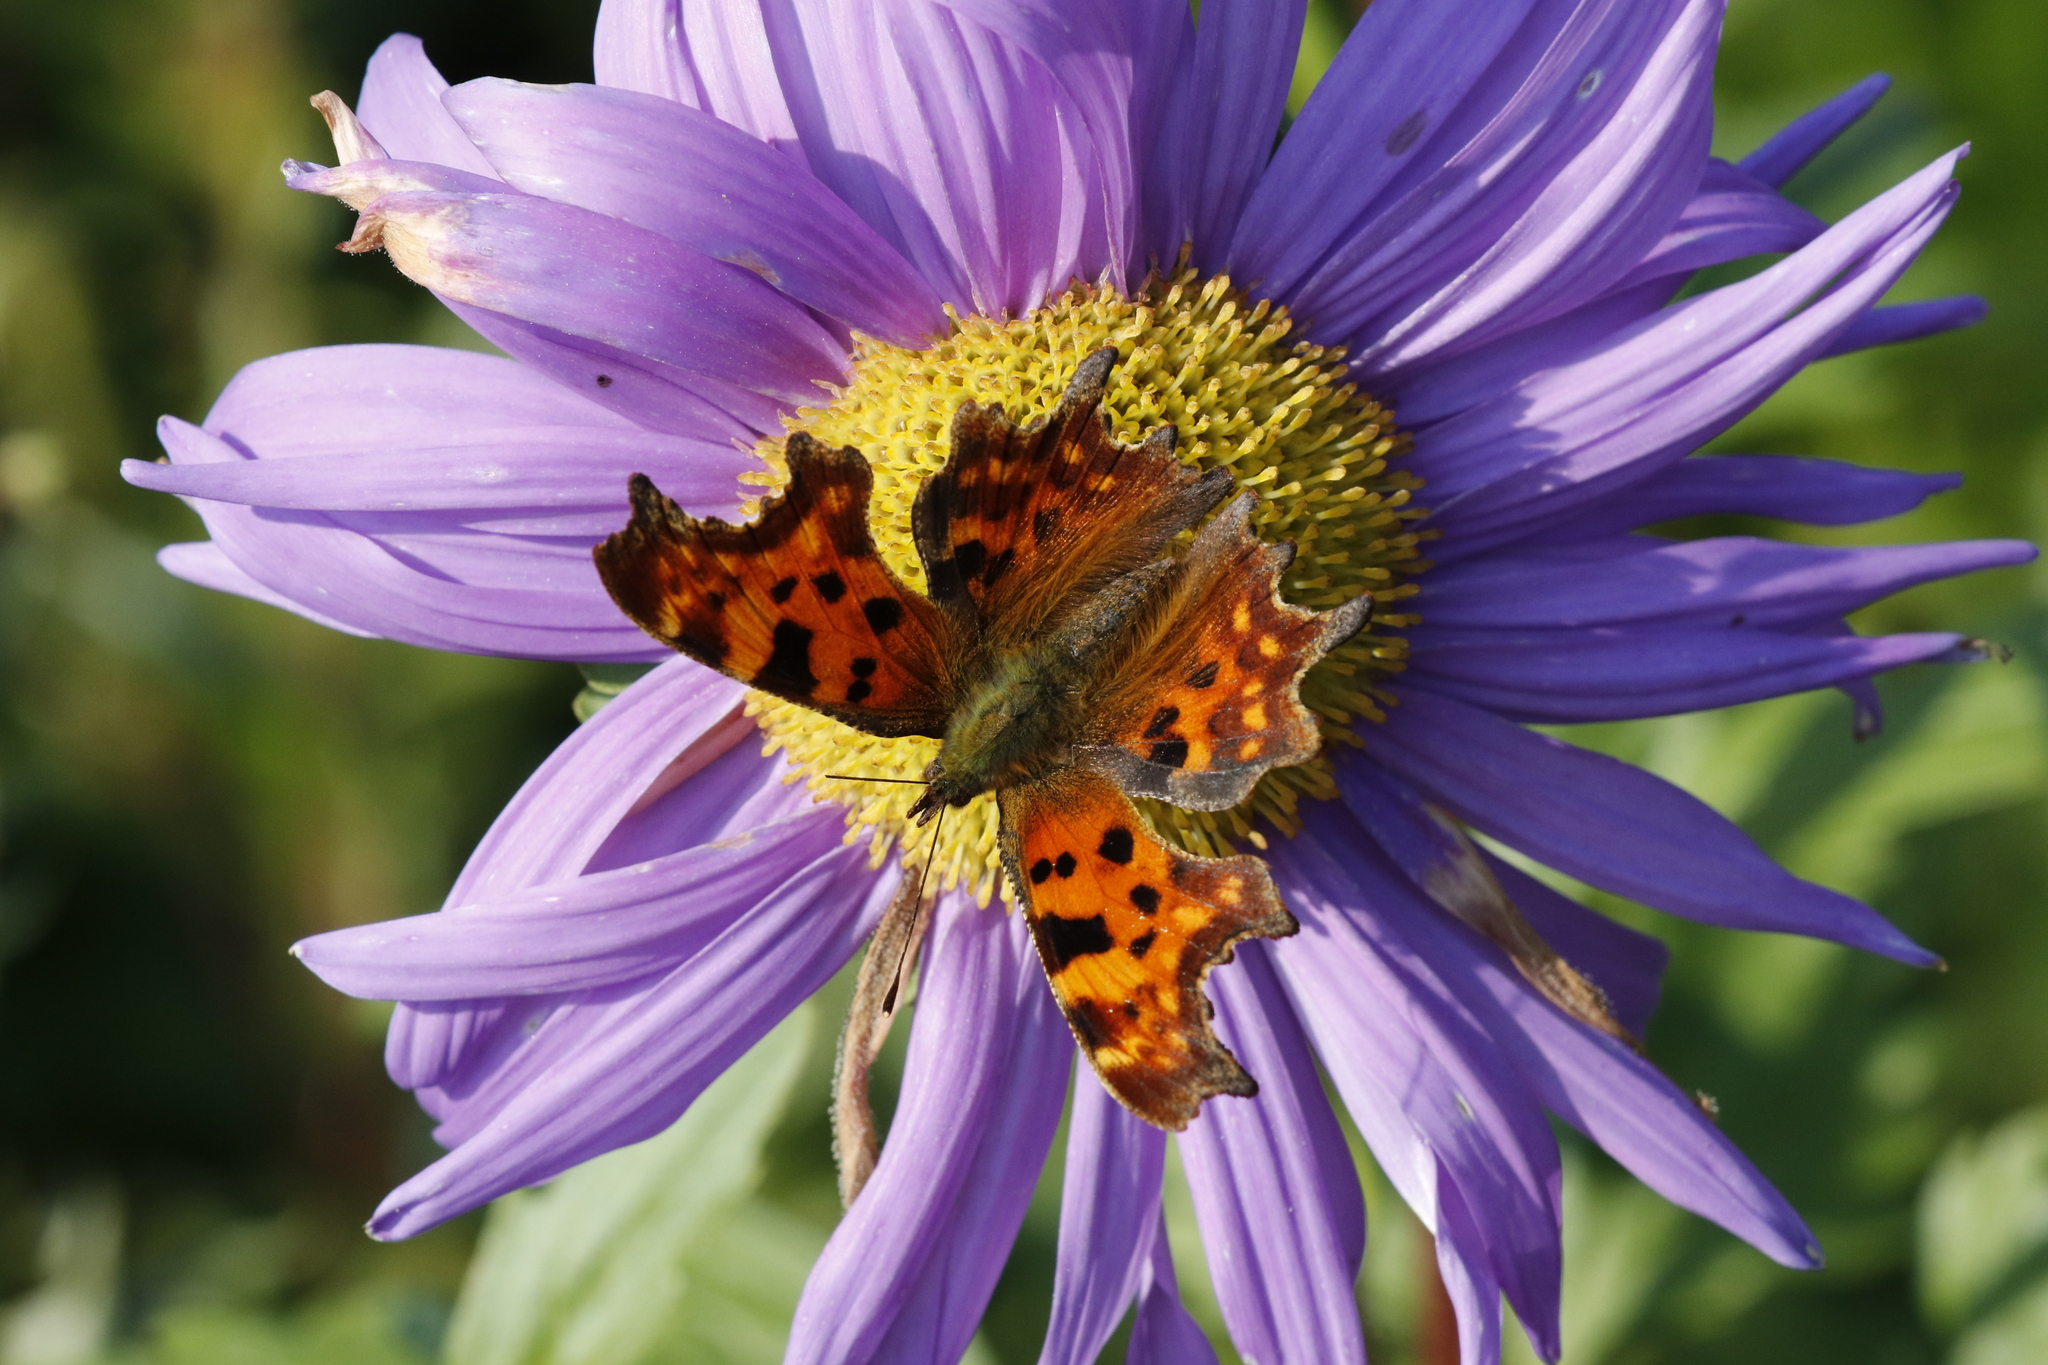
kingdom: Animalia
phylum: Arthropoda
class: Insecta
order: Lepidoptera
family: Nymphalidae
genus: Polygonia
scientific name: Polygonia c-album
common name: Comma
